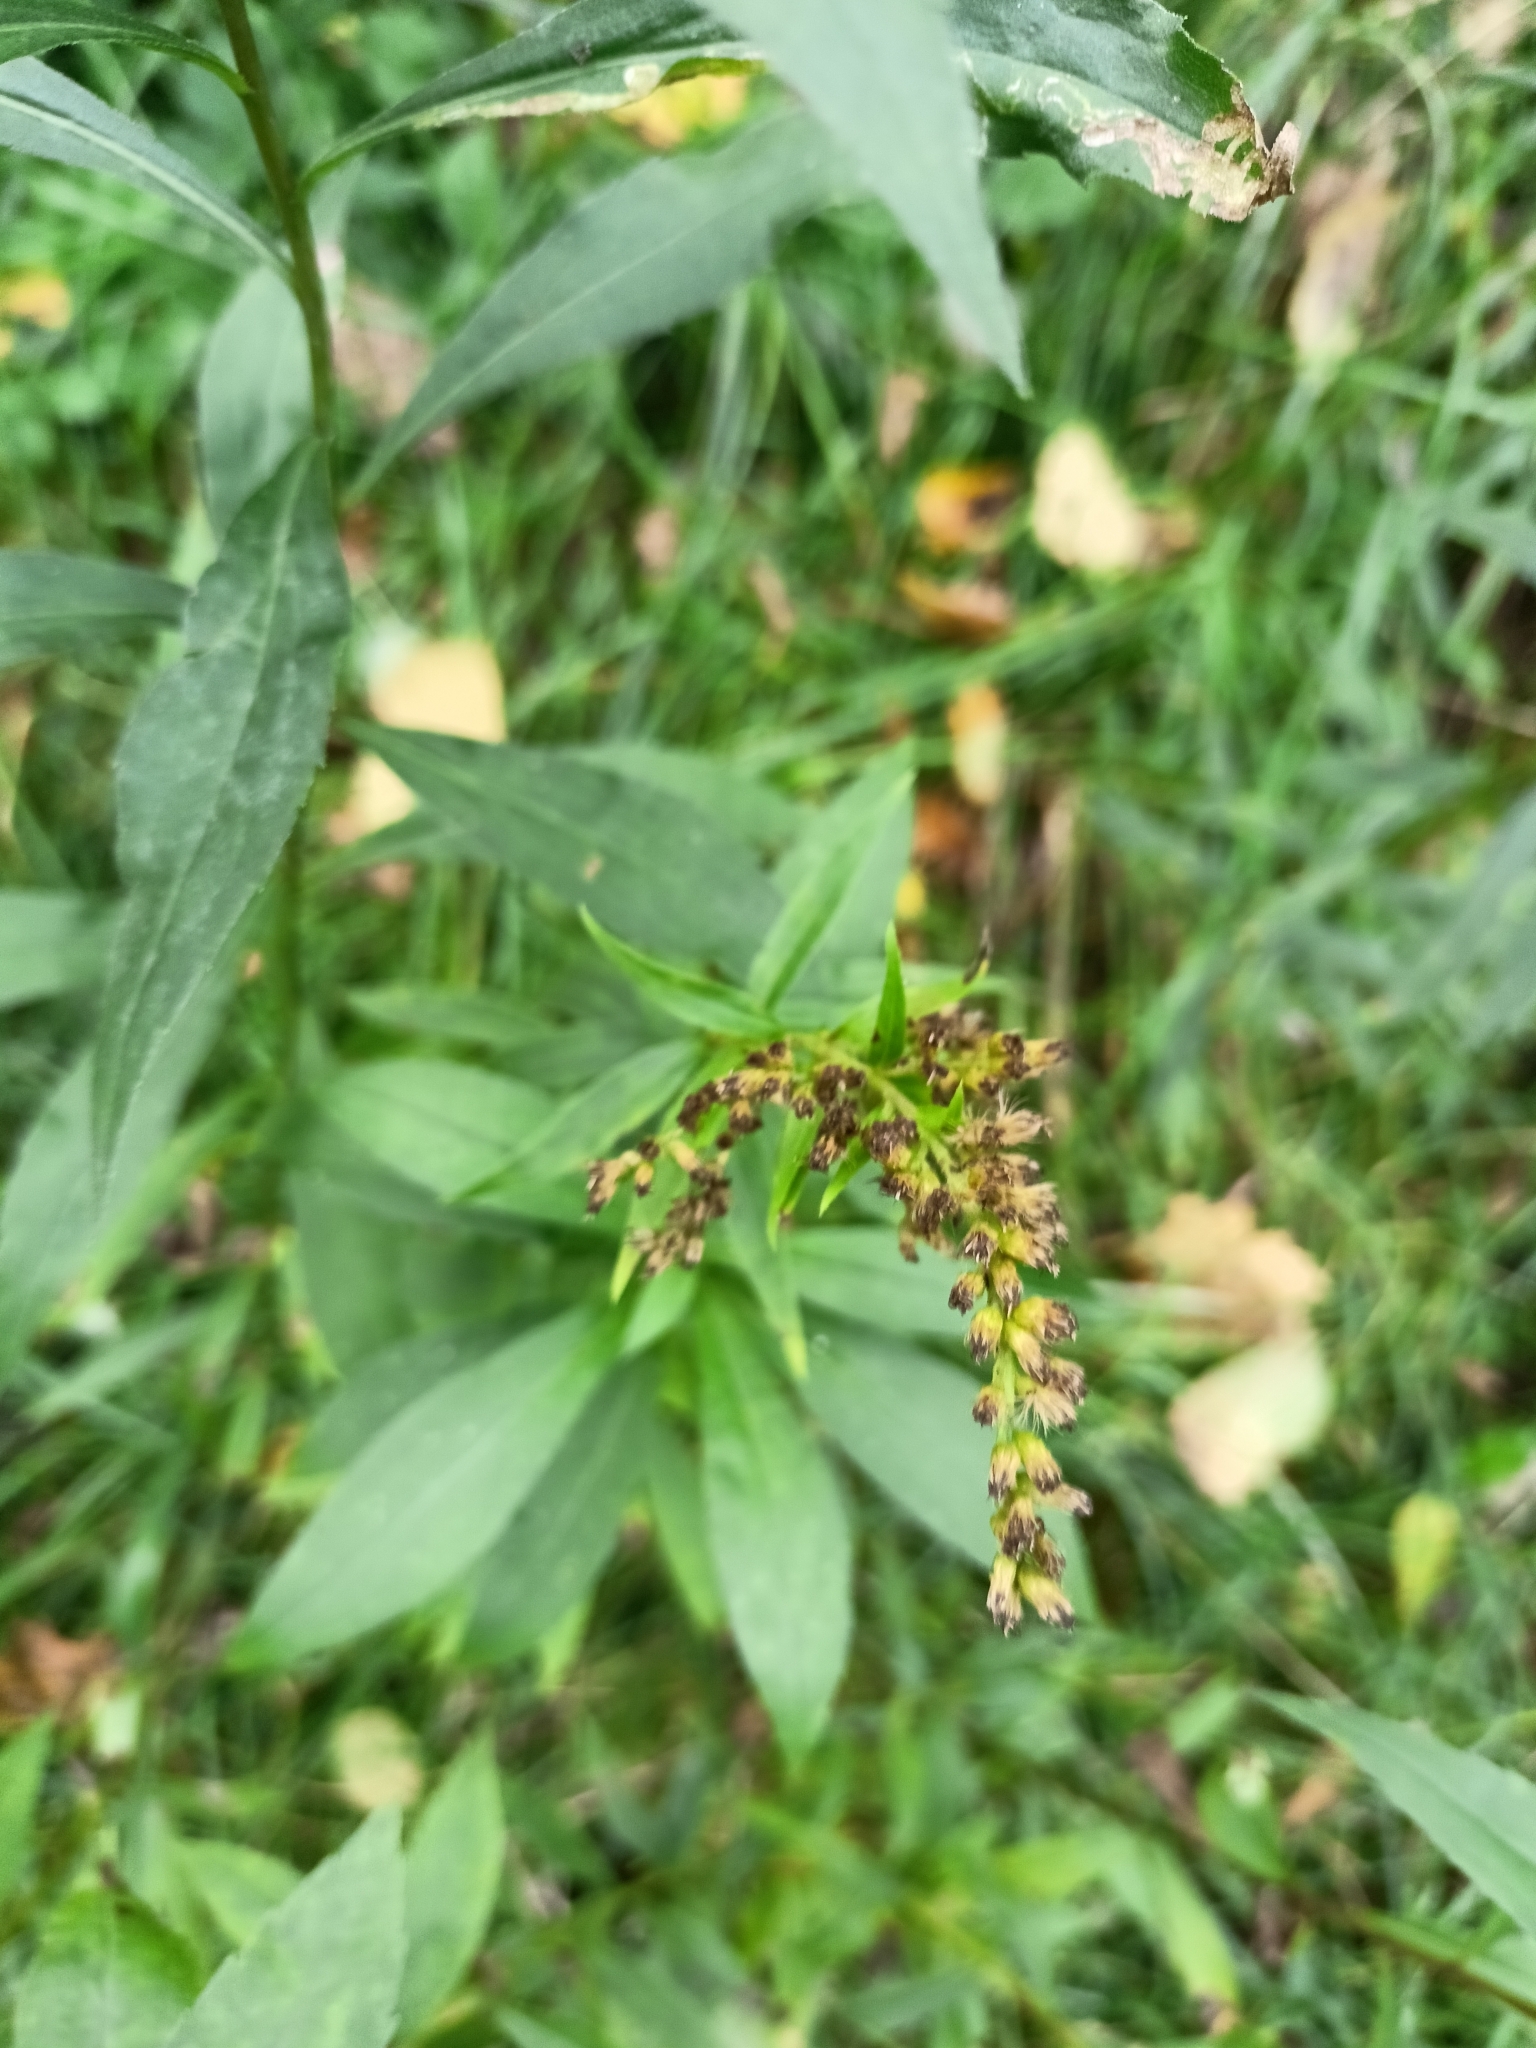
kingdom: Plantae
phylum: Tracheophyta
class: Magnoliopsida
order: Asterales
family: Asteraceae
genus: Solidago
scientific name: Solidago gigantea
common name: Giant goldenrod
